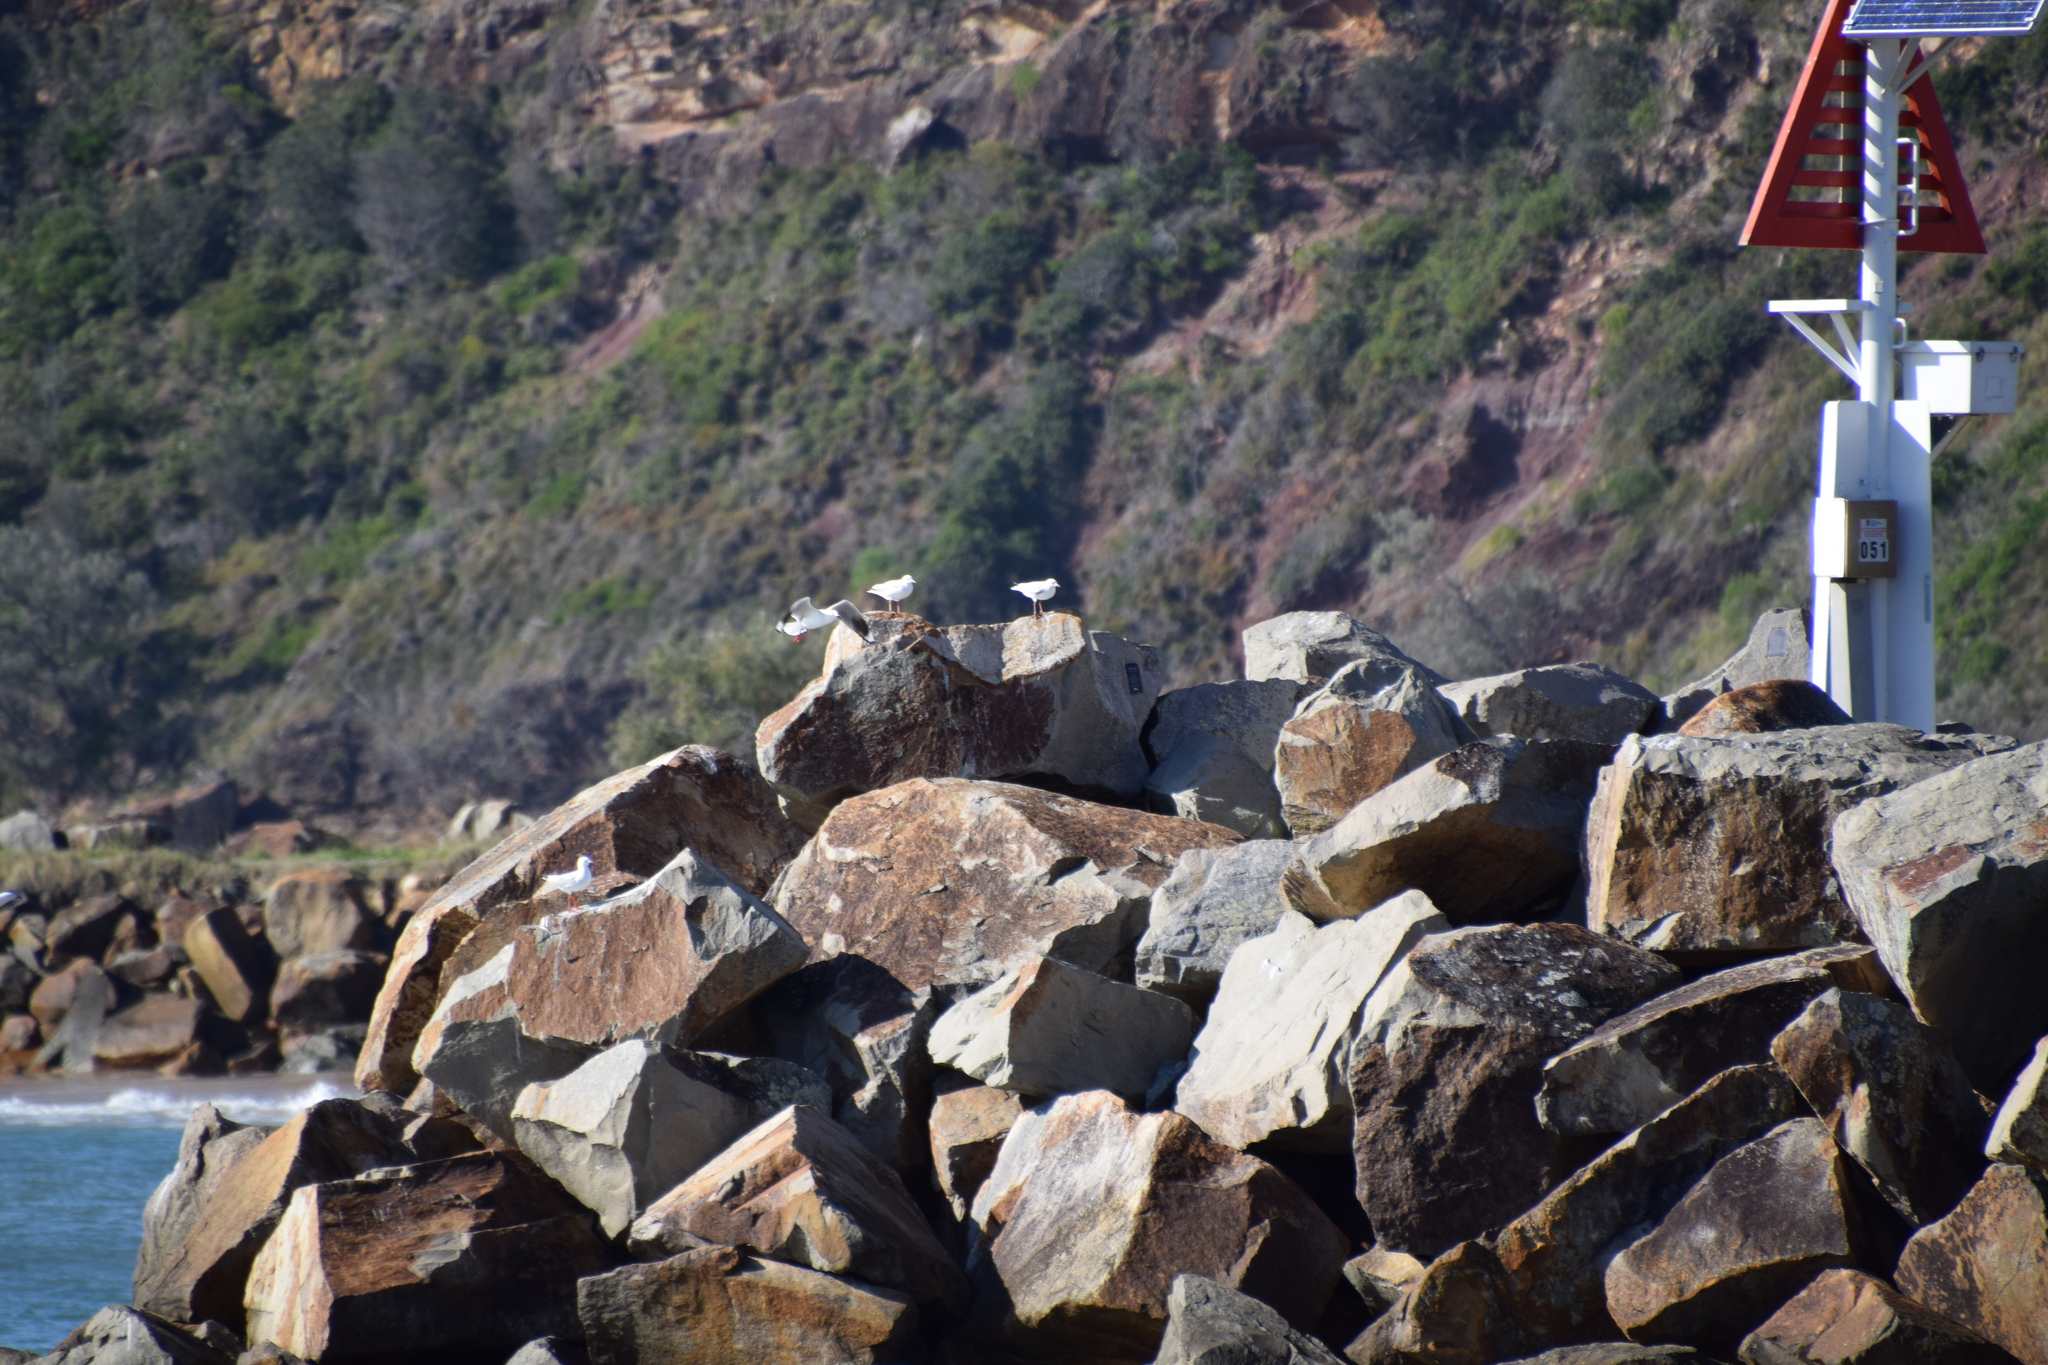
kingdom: Animalia
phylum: Chordata
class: Aves
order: Charadriiformes
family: Laridae
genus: Chroicocephalus
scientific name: Chroicocephalus novaehollandiae
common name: Silver gull
